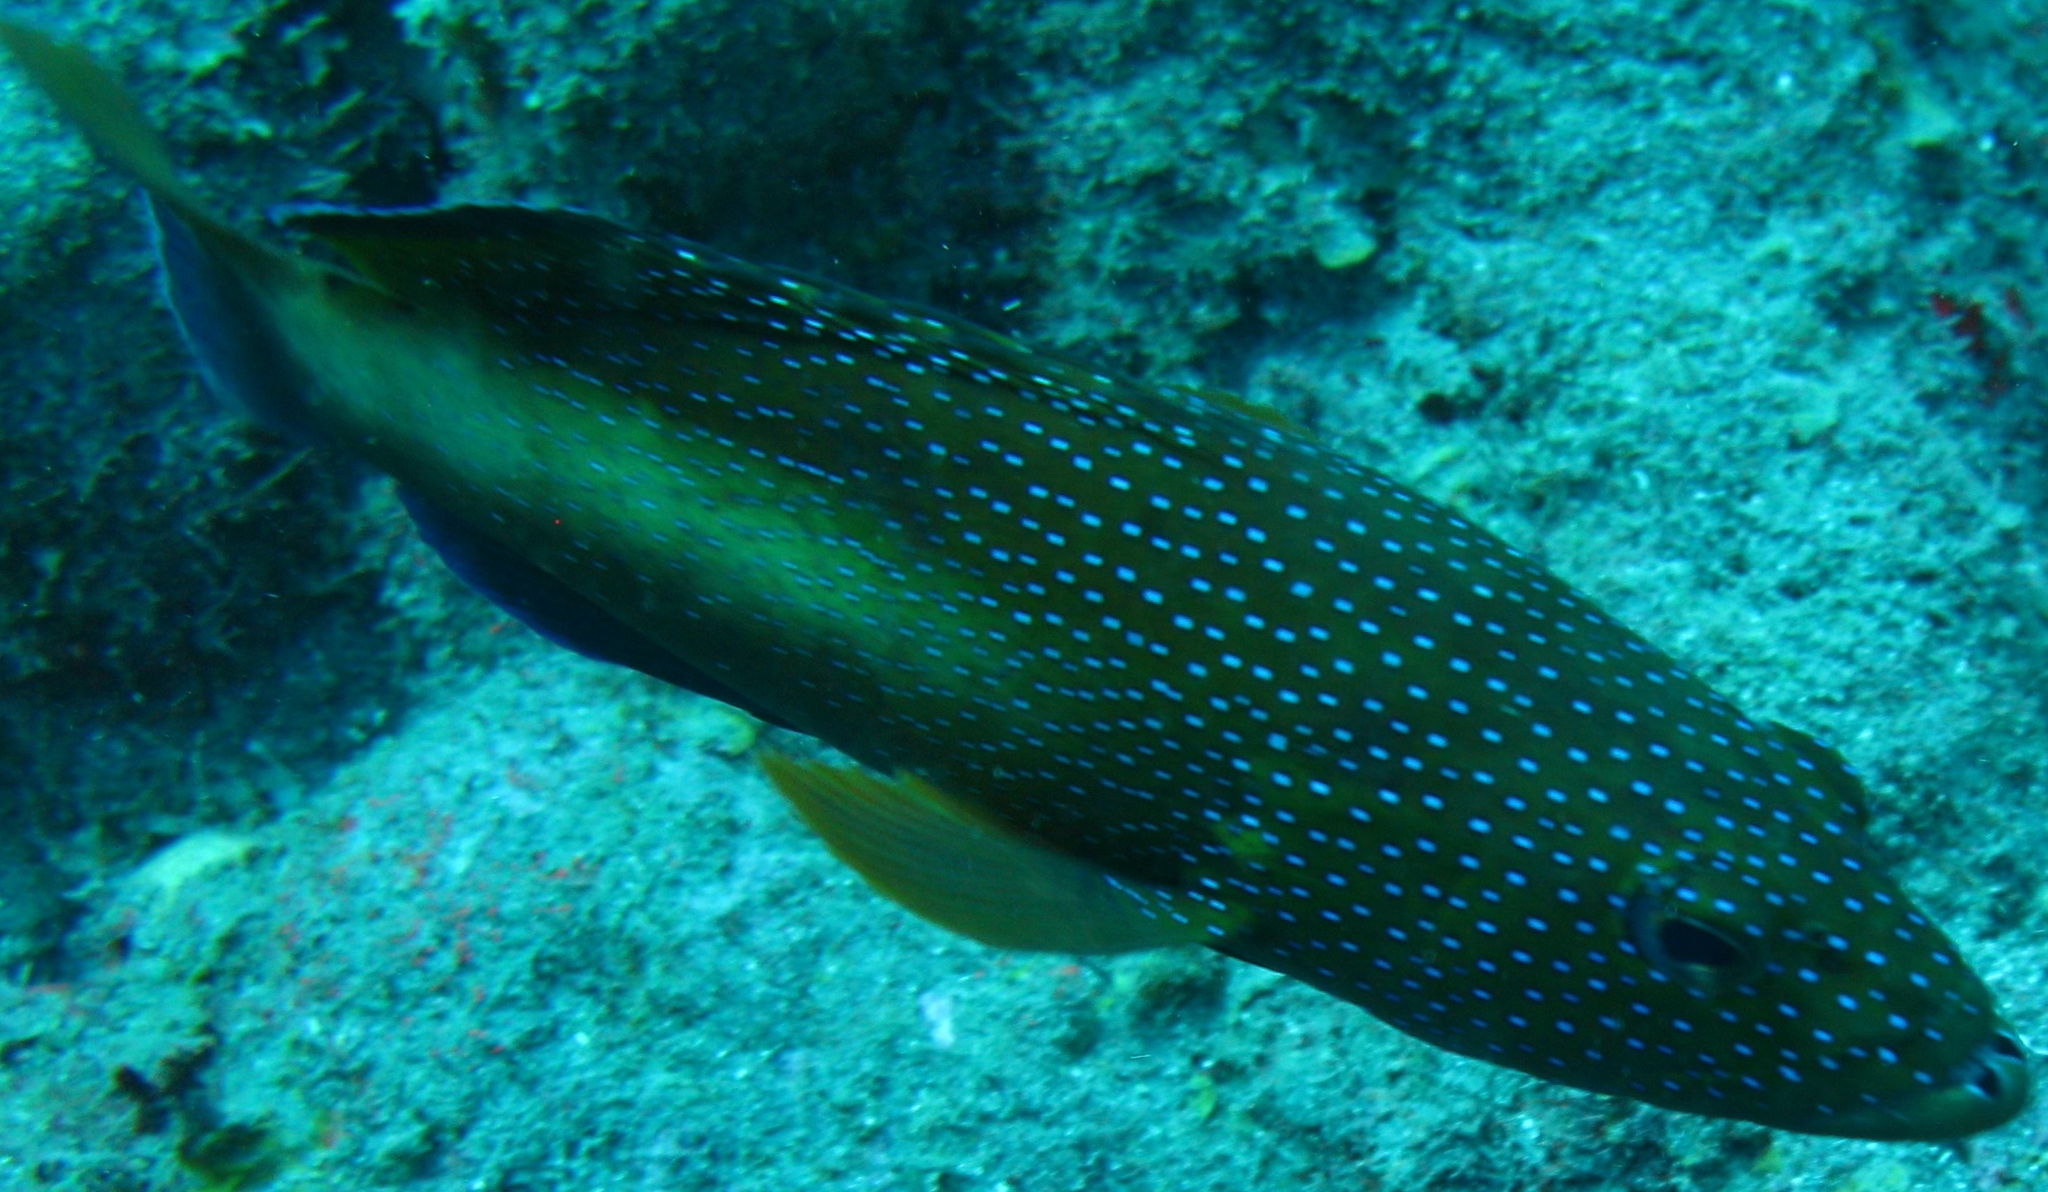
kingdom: Animalia
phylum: Chordata
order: Perciformes
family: Serranidae
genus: Cephalopholis
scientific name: Cephalopholis fulva
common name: Butterfish
